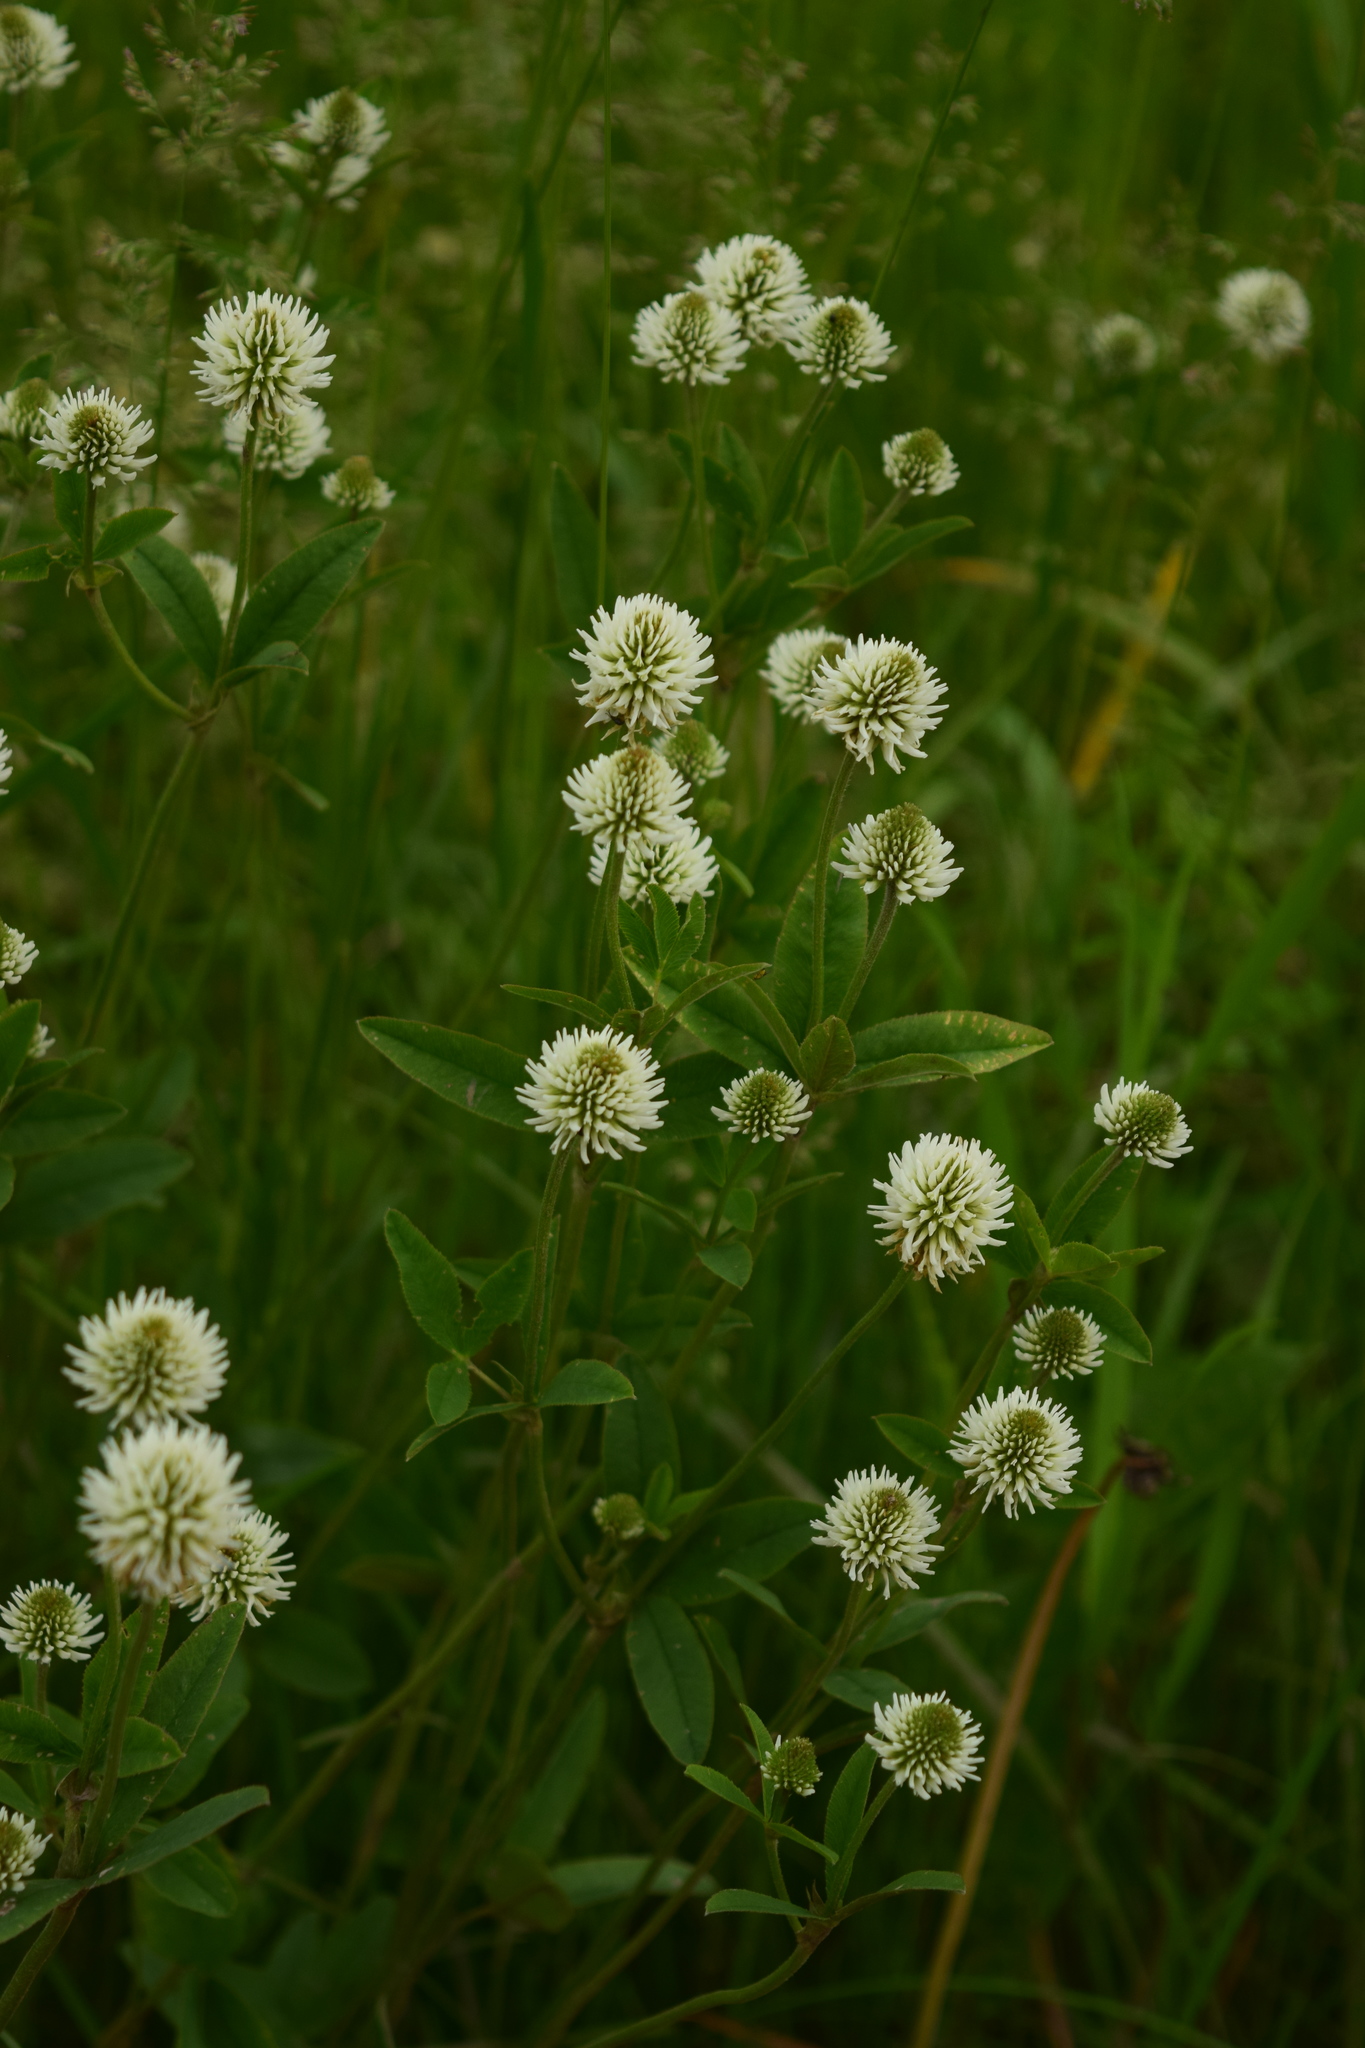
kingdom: Plantae
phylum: Tracheophyta
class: Magnoliopsida
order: Fabales
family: Fabaceae
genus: Trifolium
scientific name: Trifolium montanum
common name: Mountain clover
